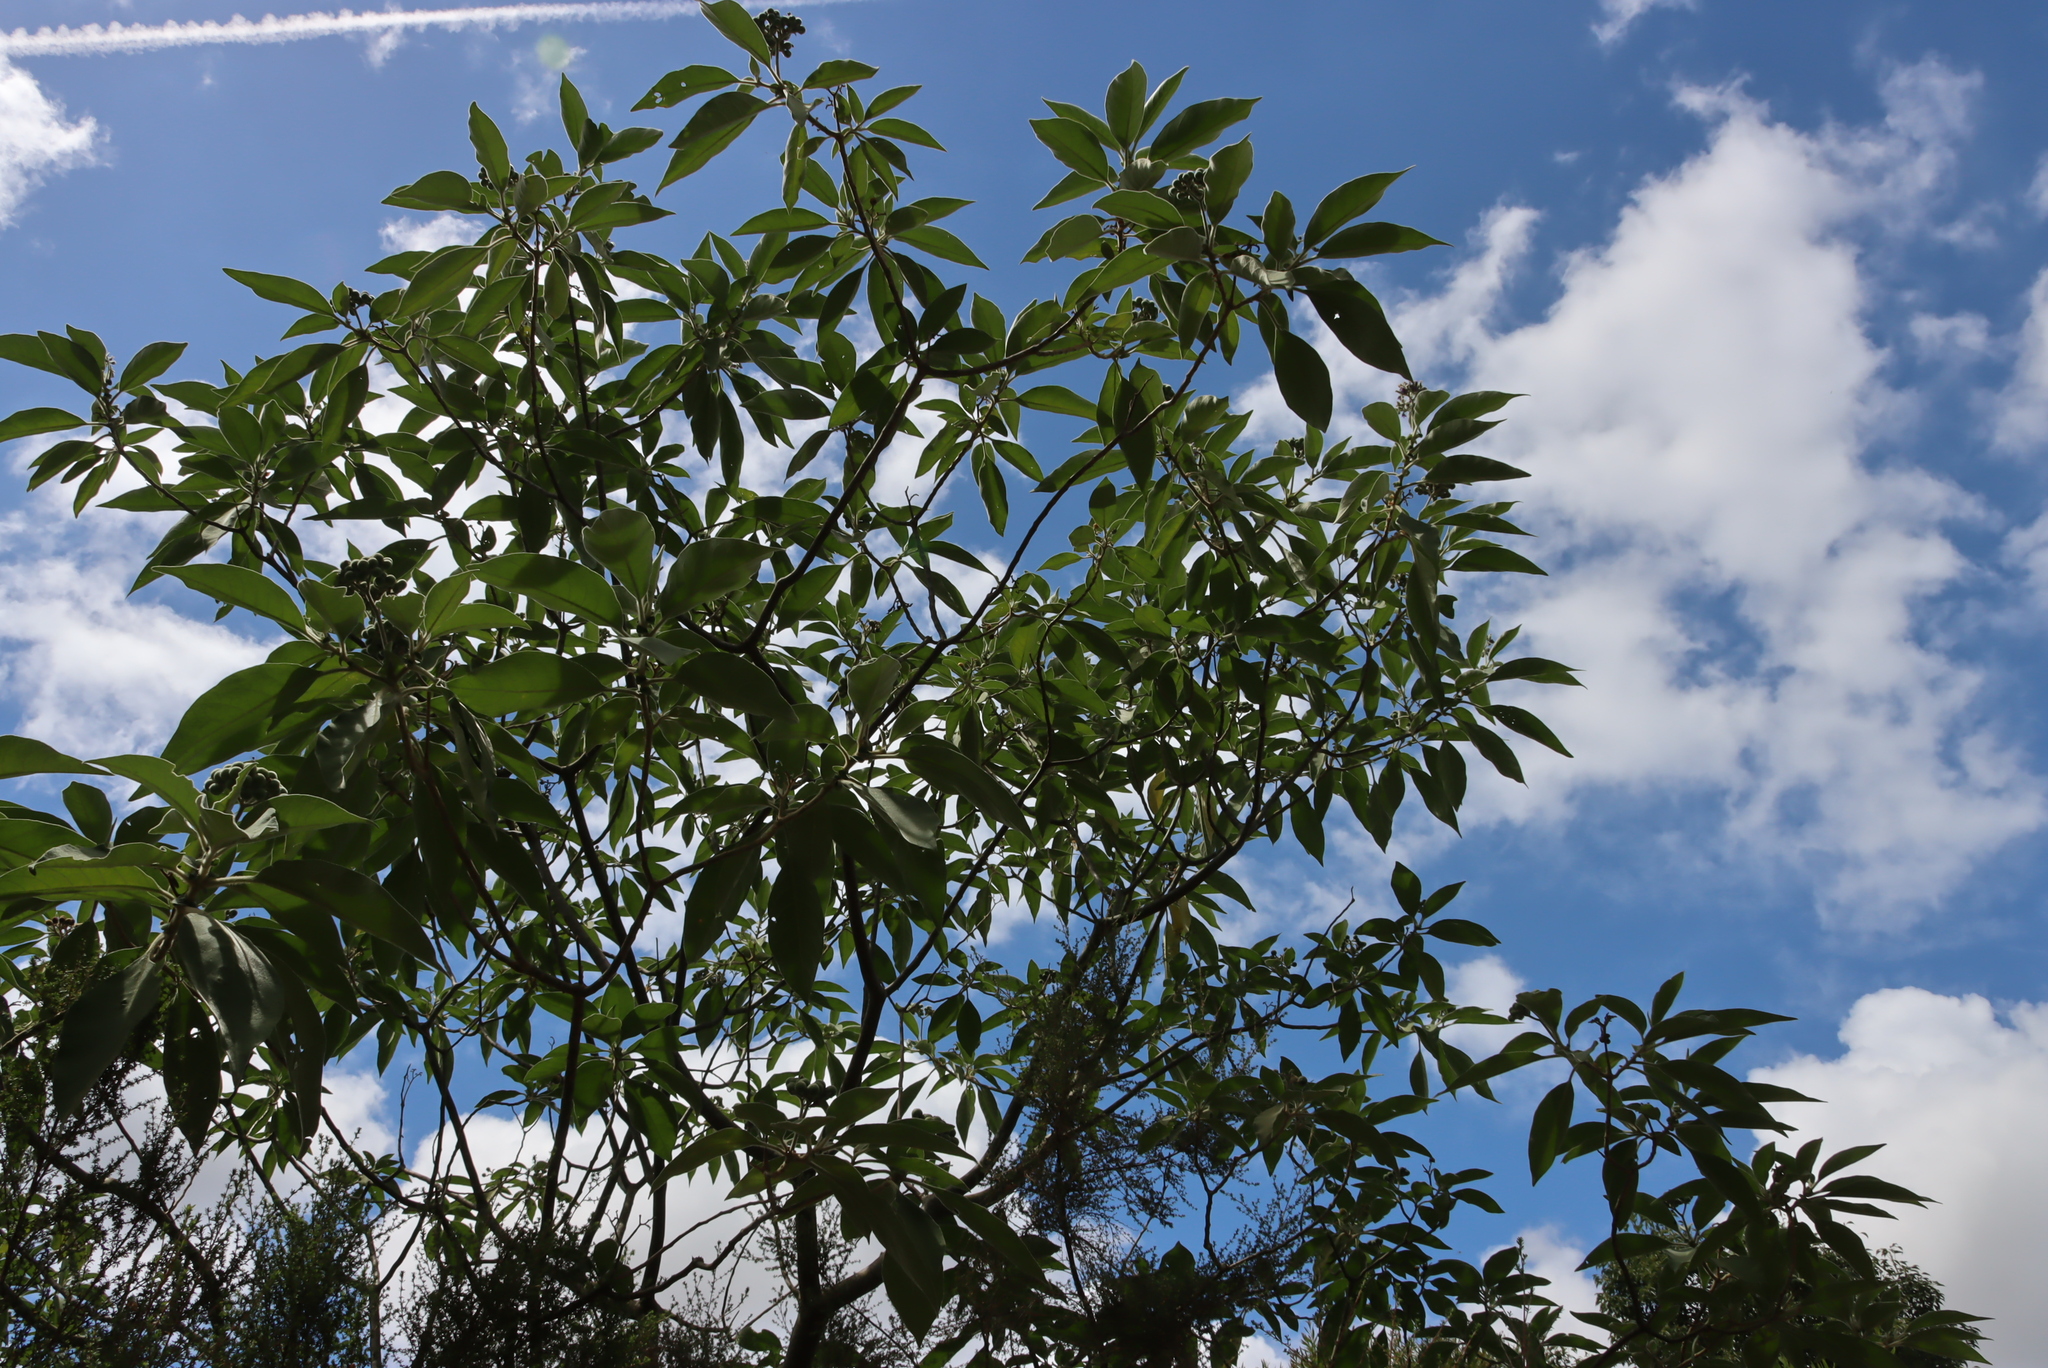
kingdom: Plantae
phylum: Tracheophyta
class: Magnoliopsida
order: Solanales
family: Solanaceae
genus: Solanum
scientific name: Solanum mauritianum
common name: Earleaf nightshade
